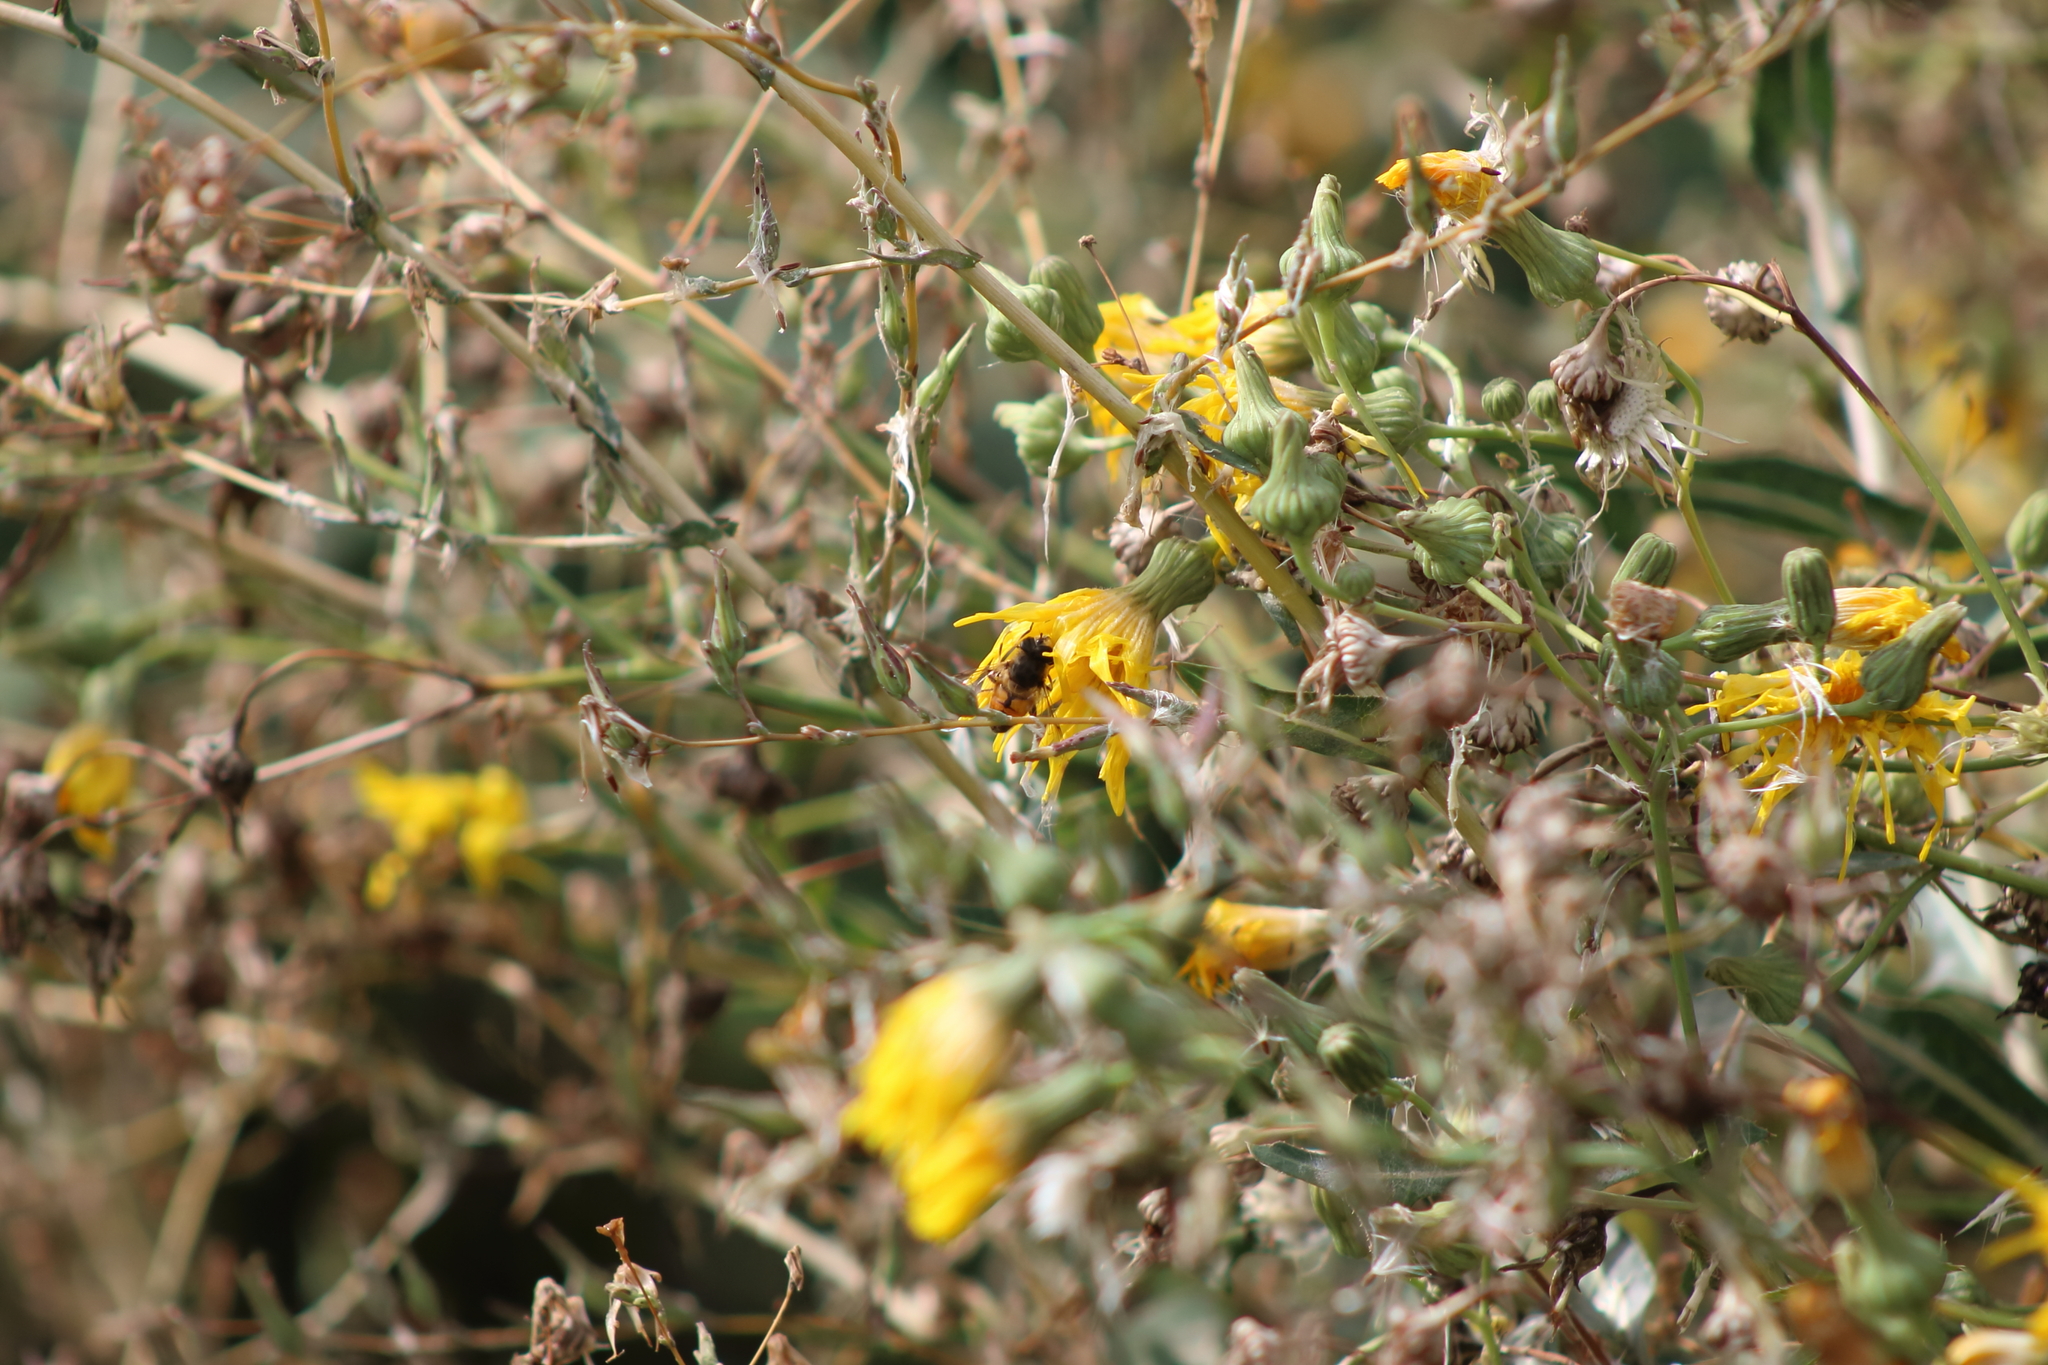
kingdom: Animalia
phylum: Arthropoda
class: Insecta
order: Diptera
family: Syrphidae
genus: Eristalis
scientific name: Eristalis tenax
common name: Drone fly
